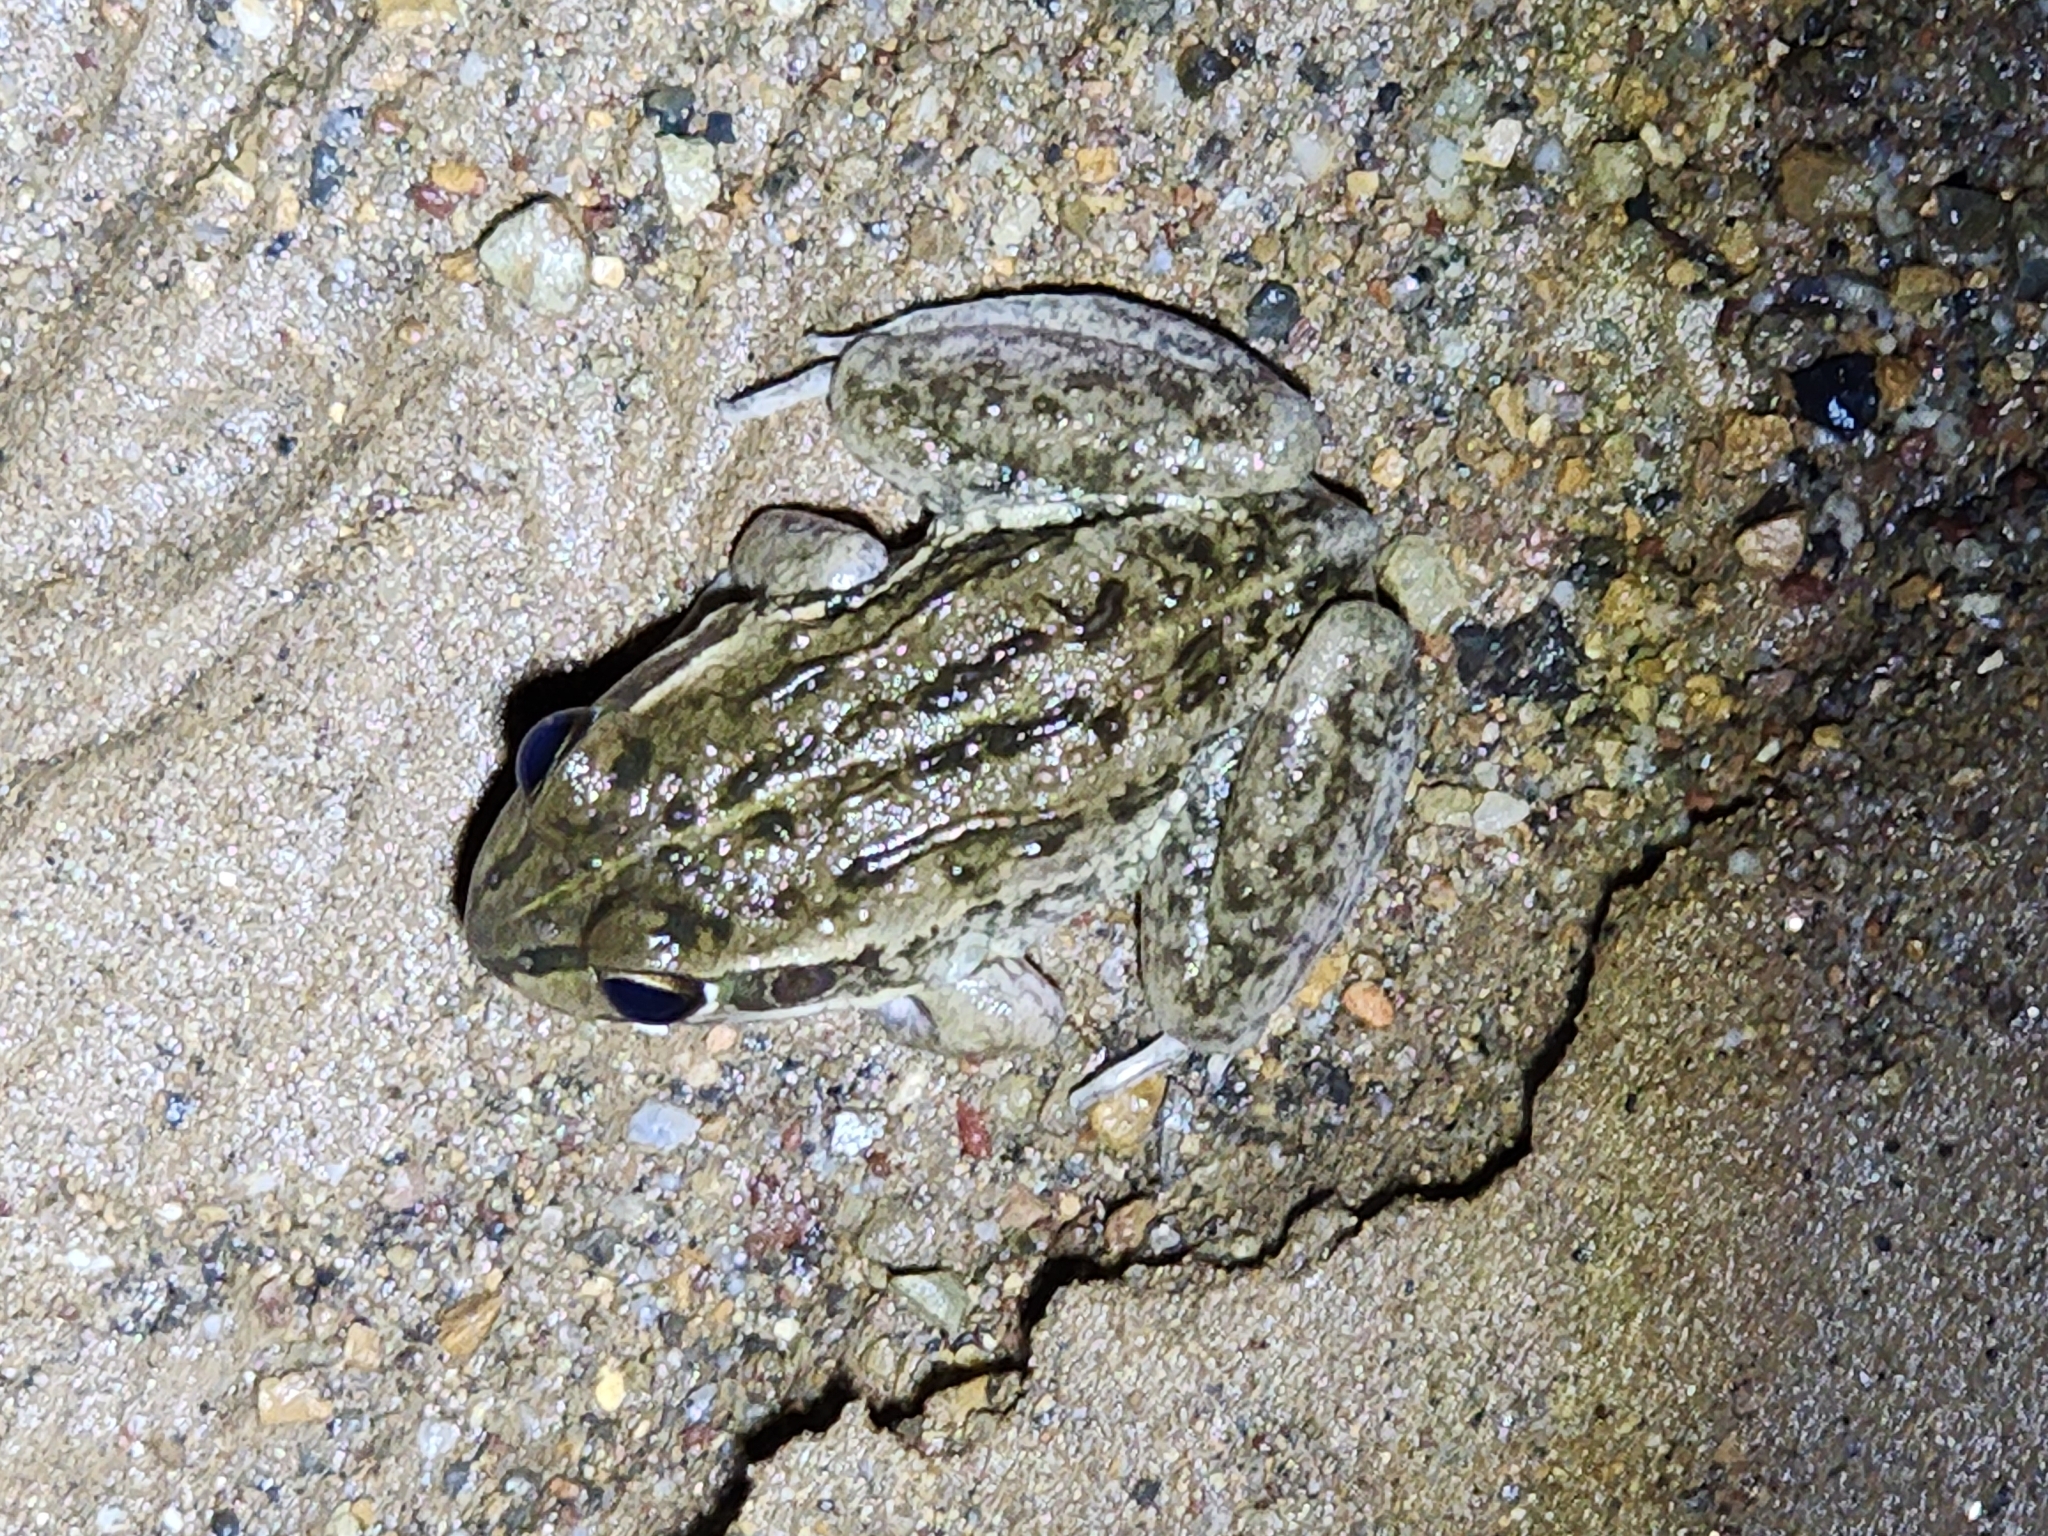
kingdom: Animalia
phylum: Chordata
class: Amphibia
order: Anura
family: Pelodryadidae
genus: Ranoidea
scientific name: Ranoidea alboguttata
